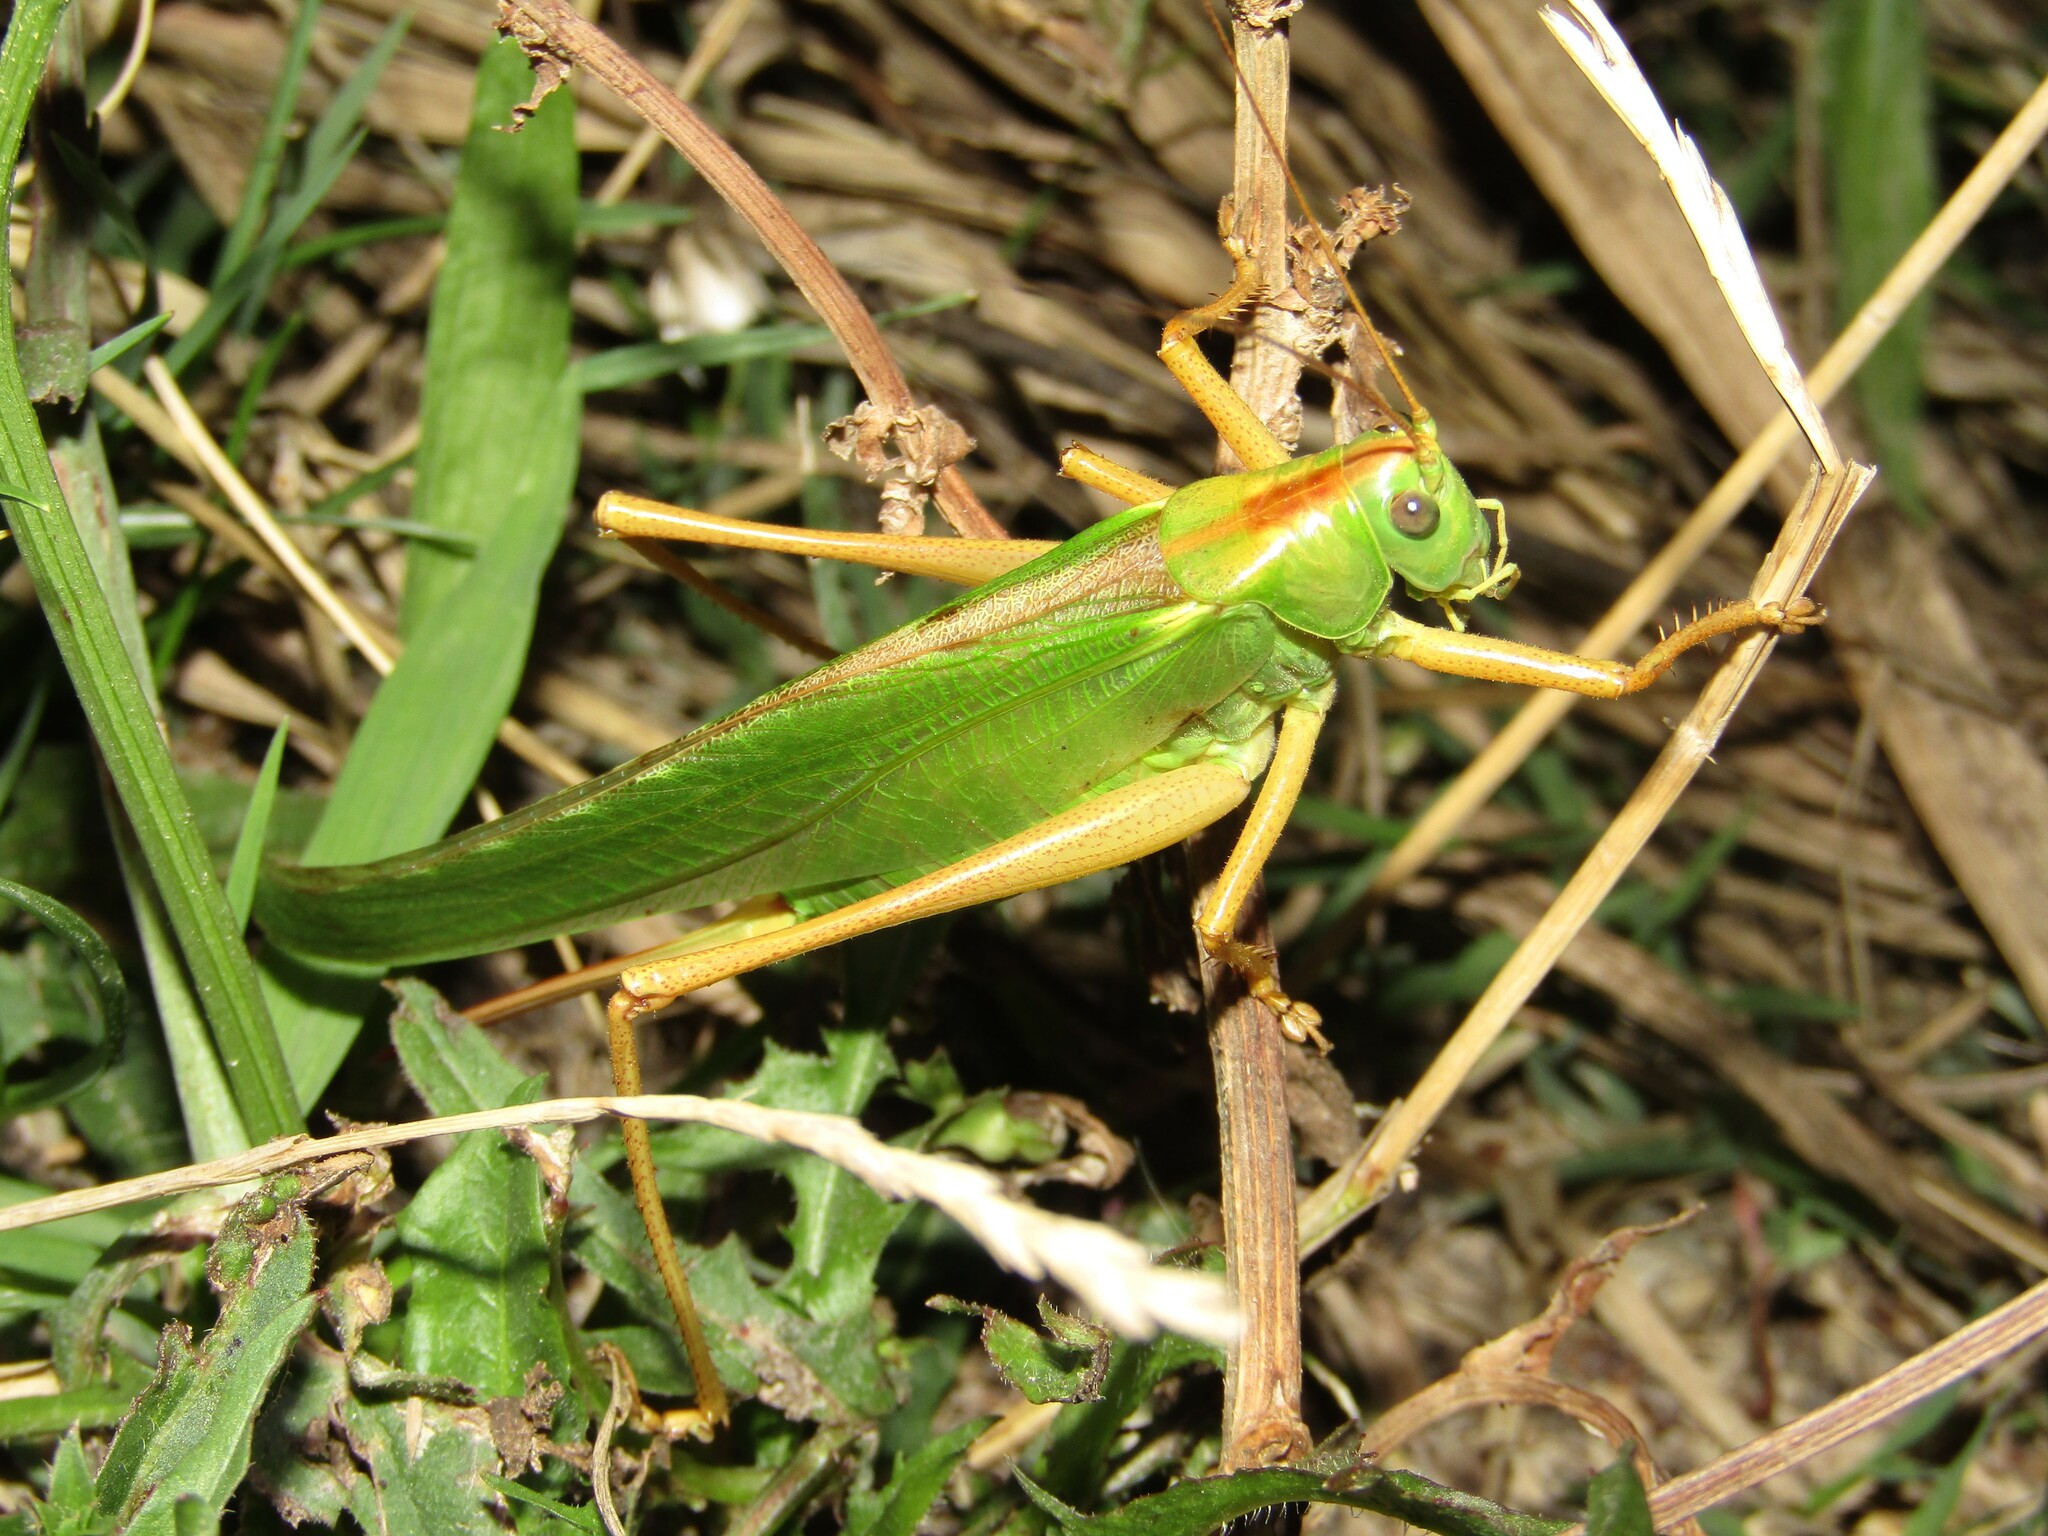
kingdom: Animalia
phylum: Arthropoda
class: Insecta
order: Orthoptera
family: Tettigoniidae
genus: Tettigonia
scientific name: Tettigonia viridissima
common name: Great green bush-cricket
